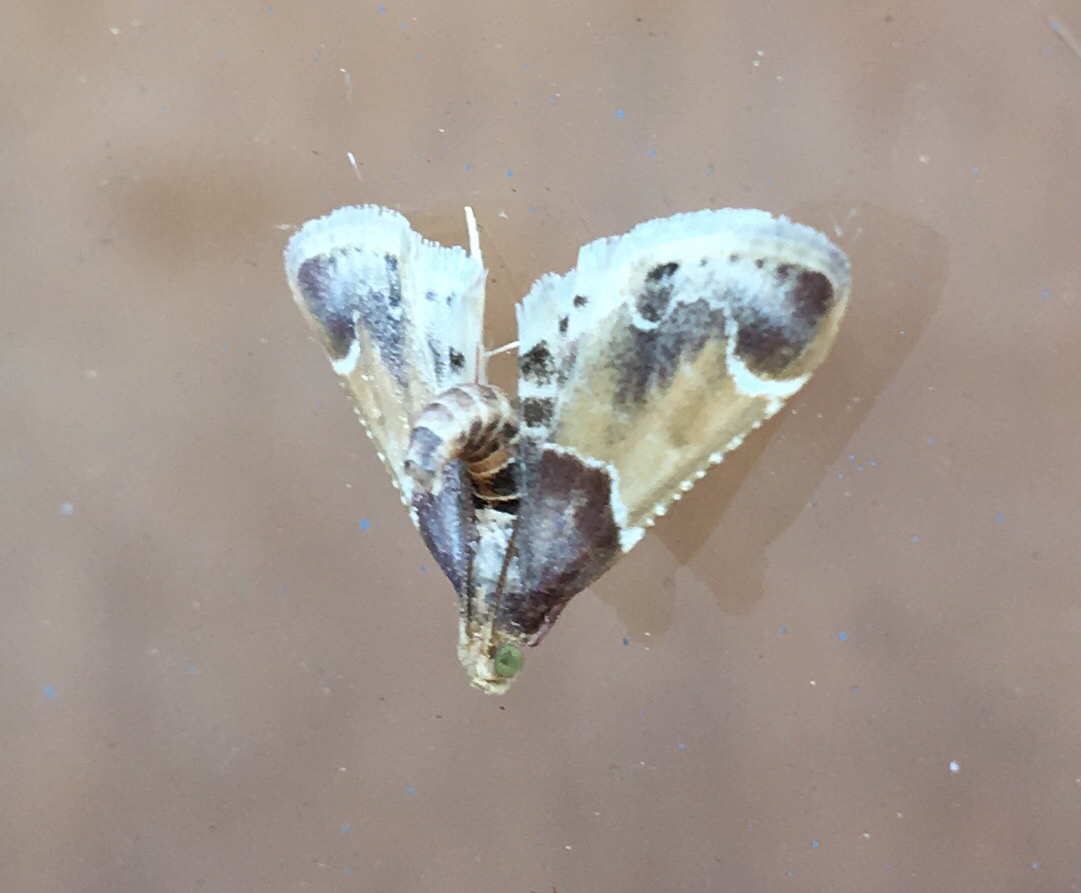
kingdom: Animalia
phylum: Arthropoda
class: Insecta
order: Lepidoptera
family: Pyralidae
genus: Pyralis
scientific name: Pyralis farinalis
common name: Meal moth
